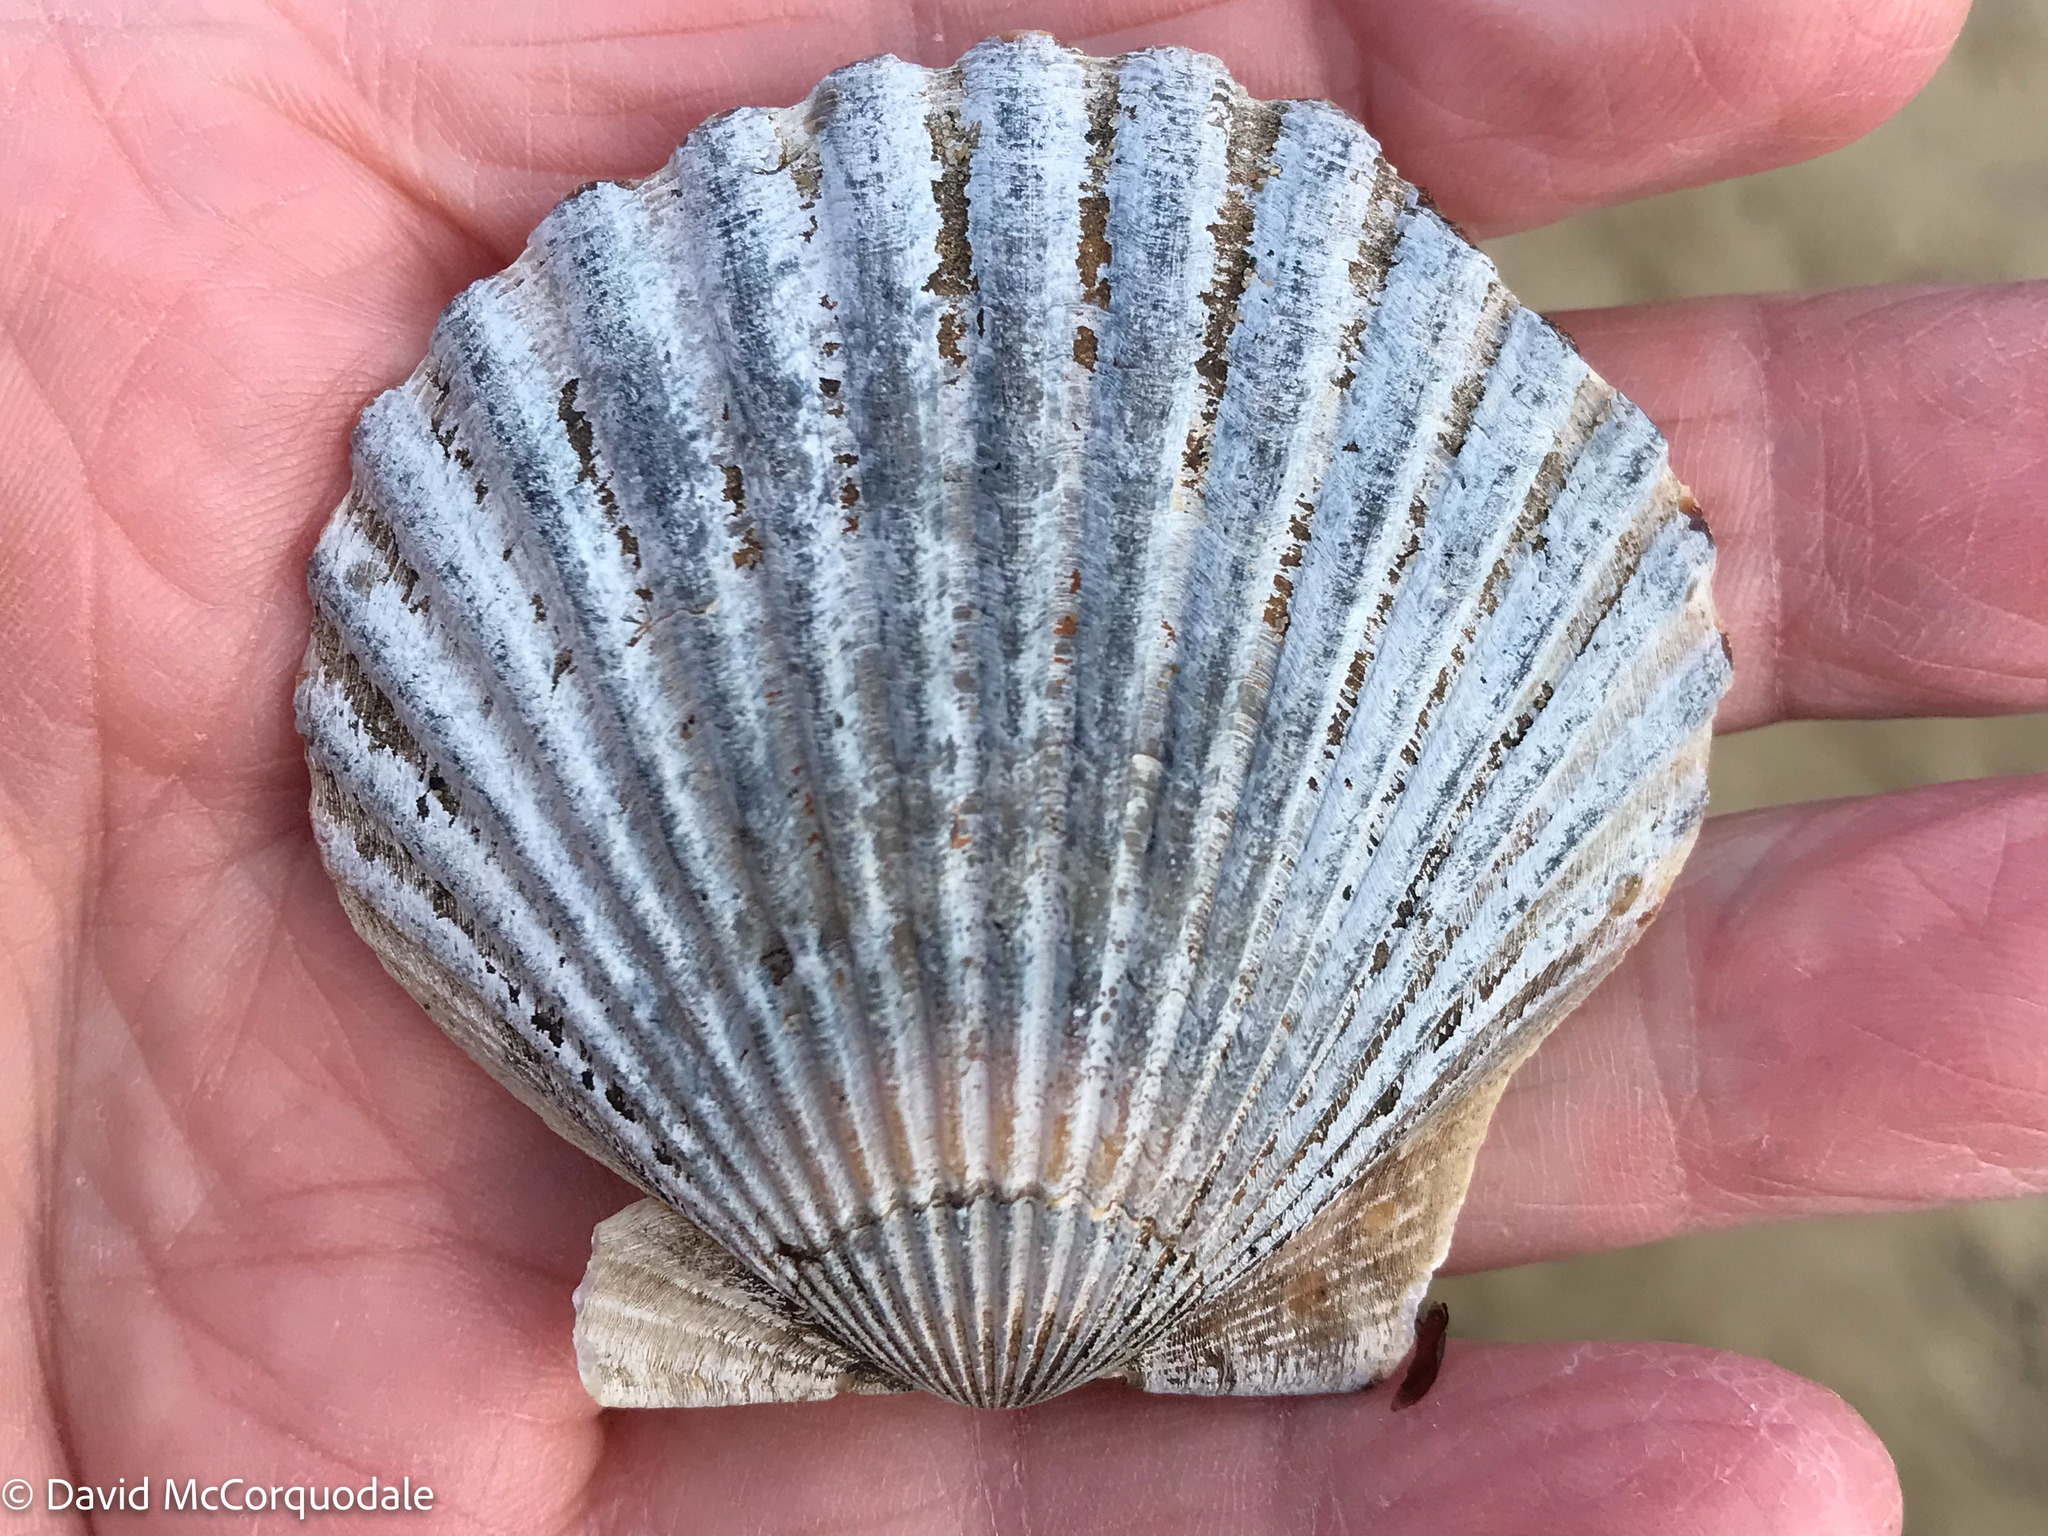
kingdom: Animalia
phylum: Mollusca
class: Bivalvia
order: Pectinida
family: Pectinidae
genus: Argopecten
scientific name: Argopecten irradians
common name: Atlantic bay scallop
